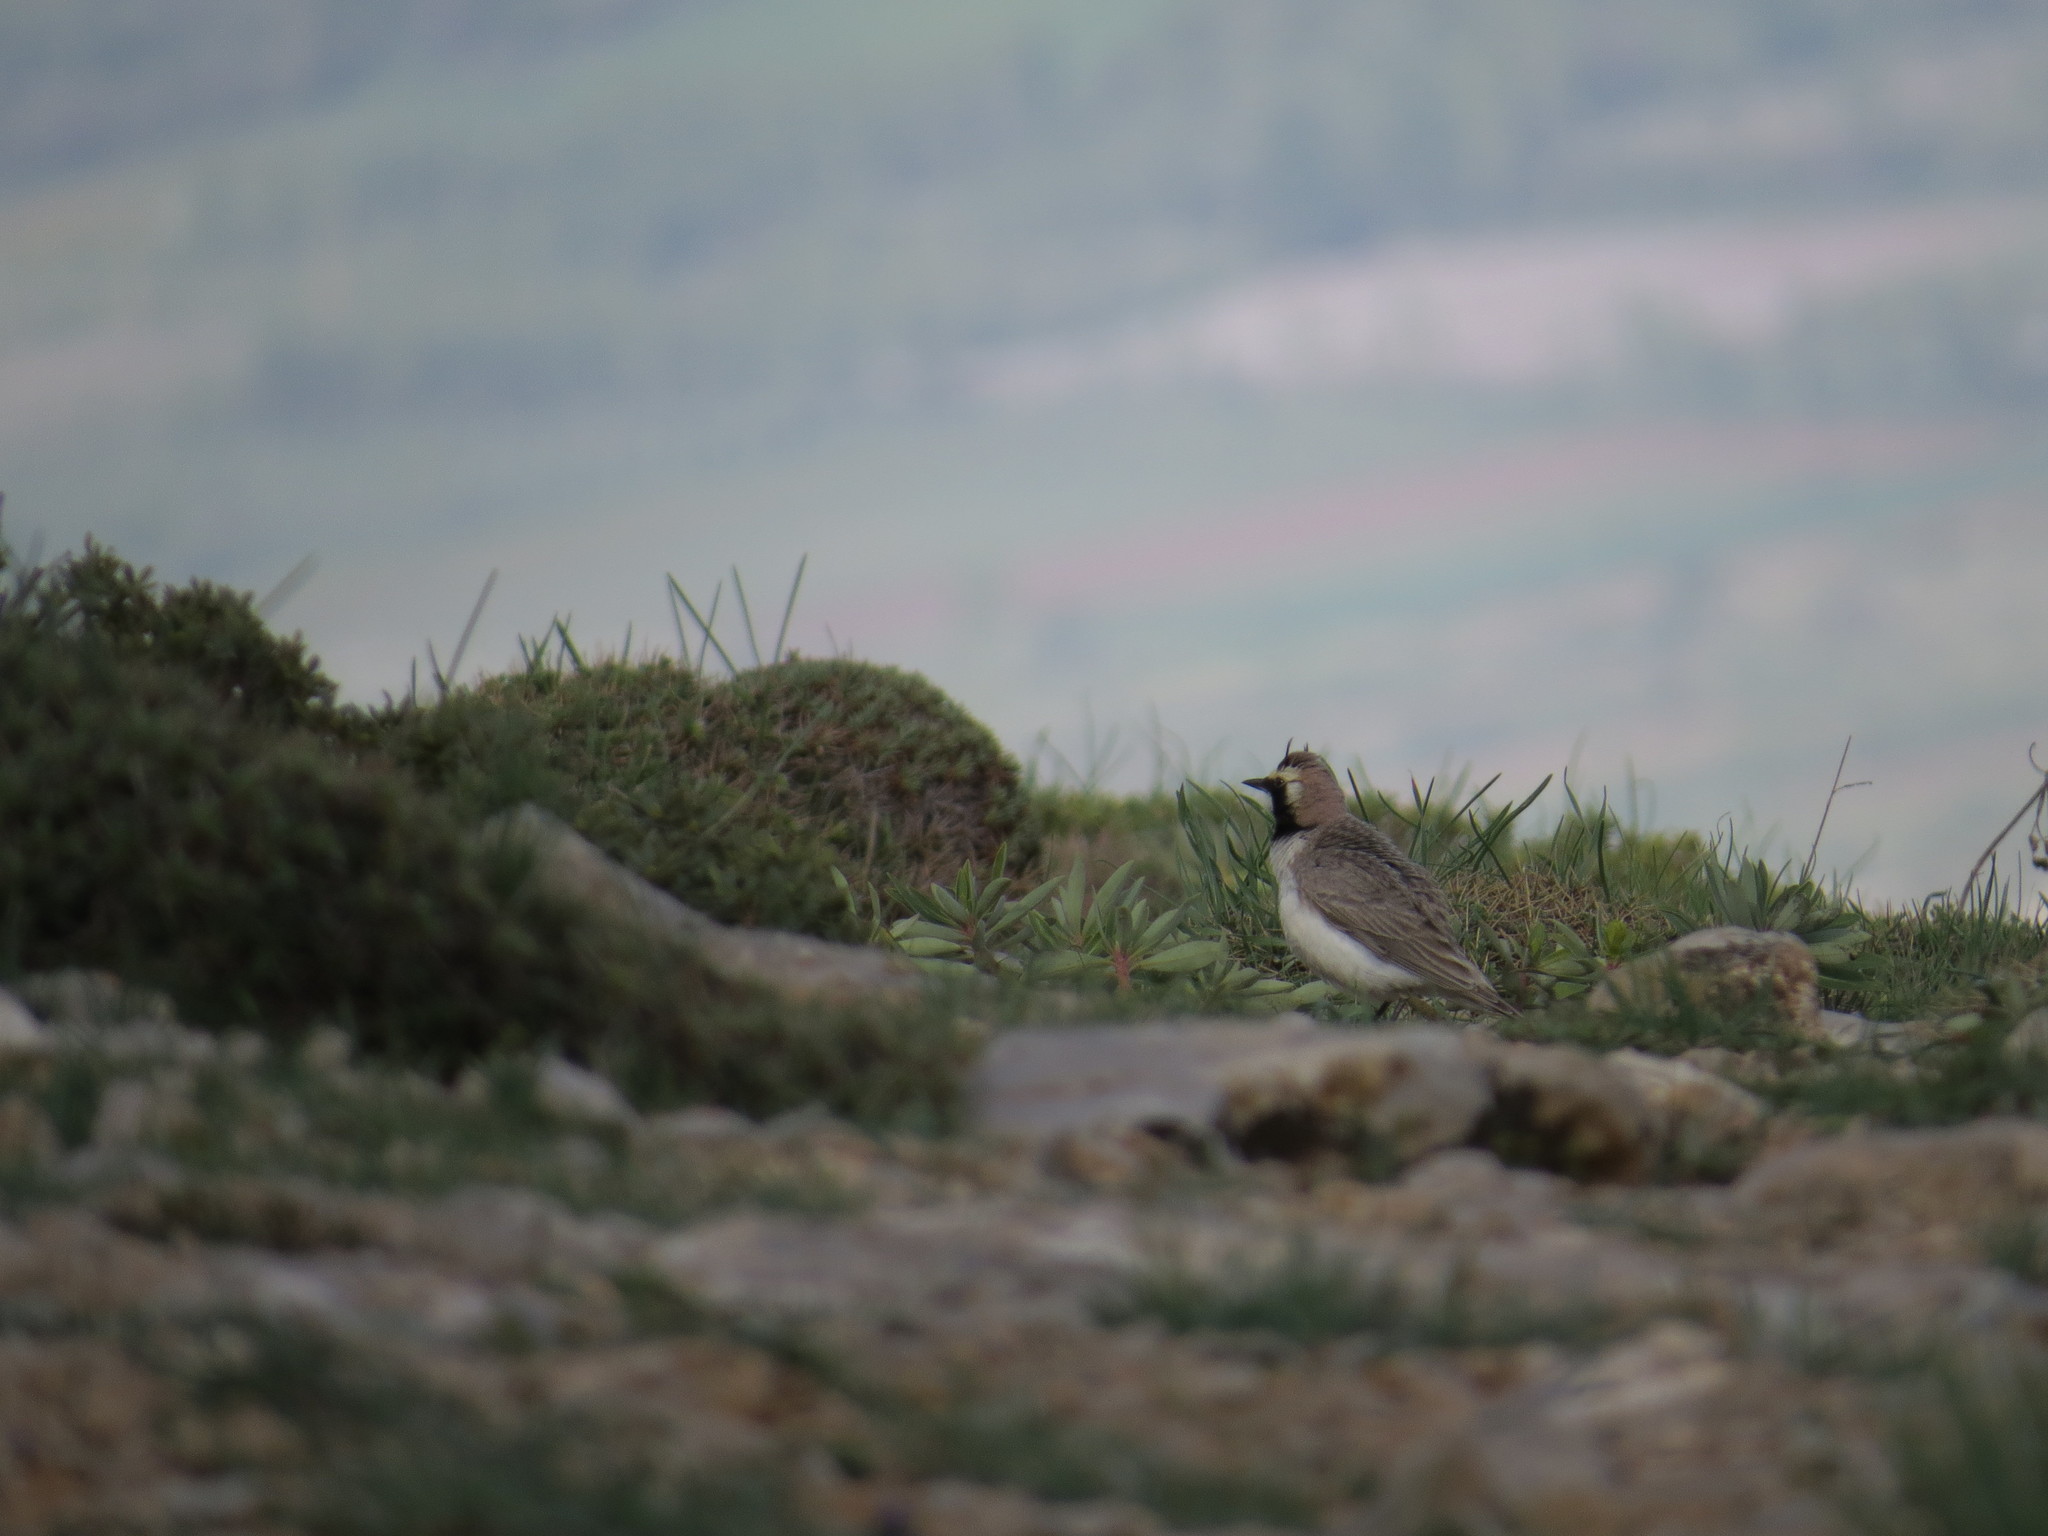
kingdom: Animalia
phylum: Chordata
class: Aves
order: Passeriformes
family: Alaudidae
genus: Eremophila
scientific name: Eremophila alpestris
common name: Horned lark
